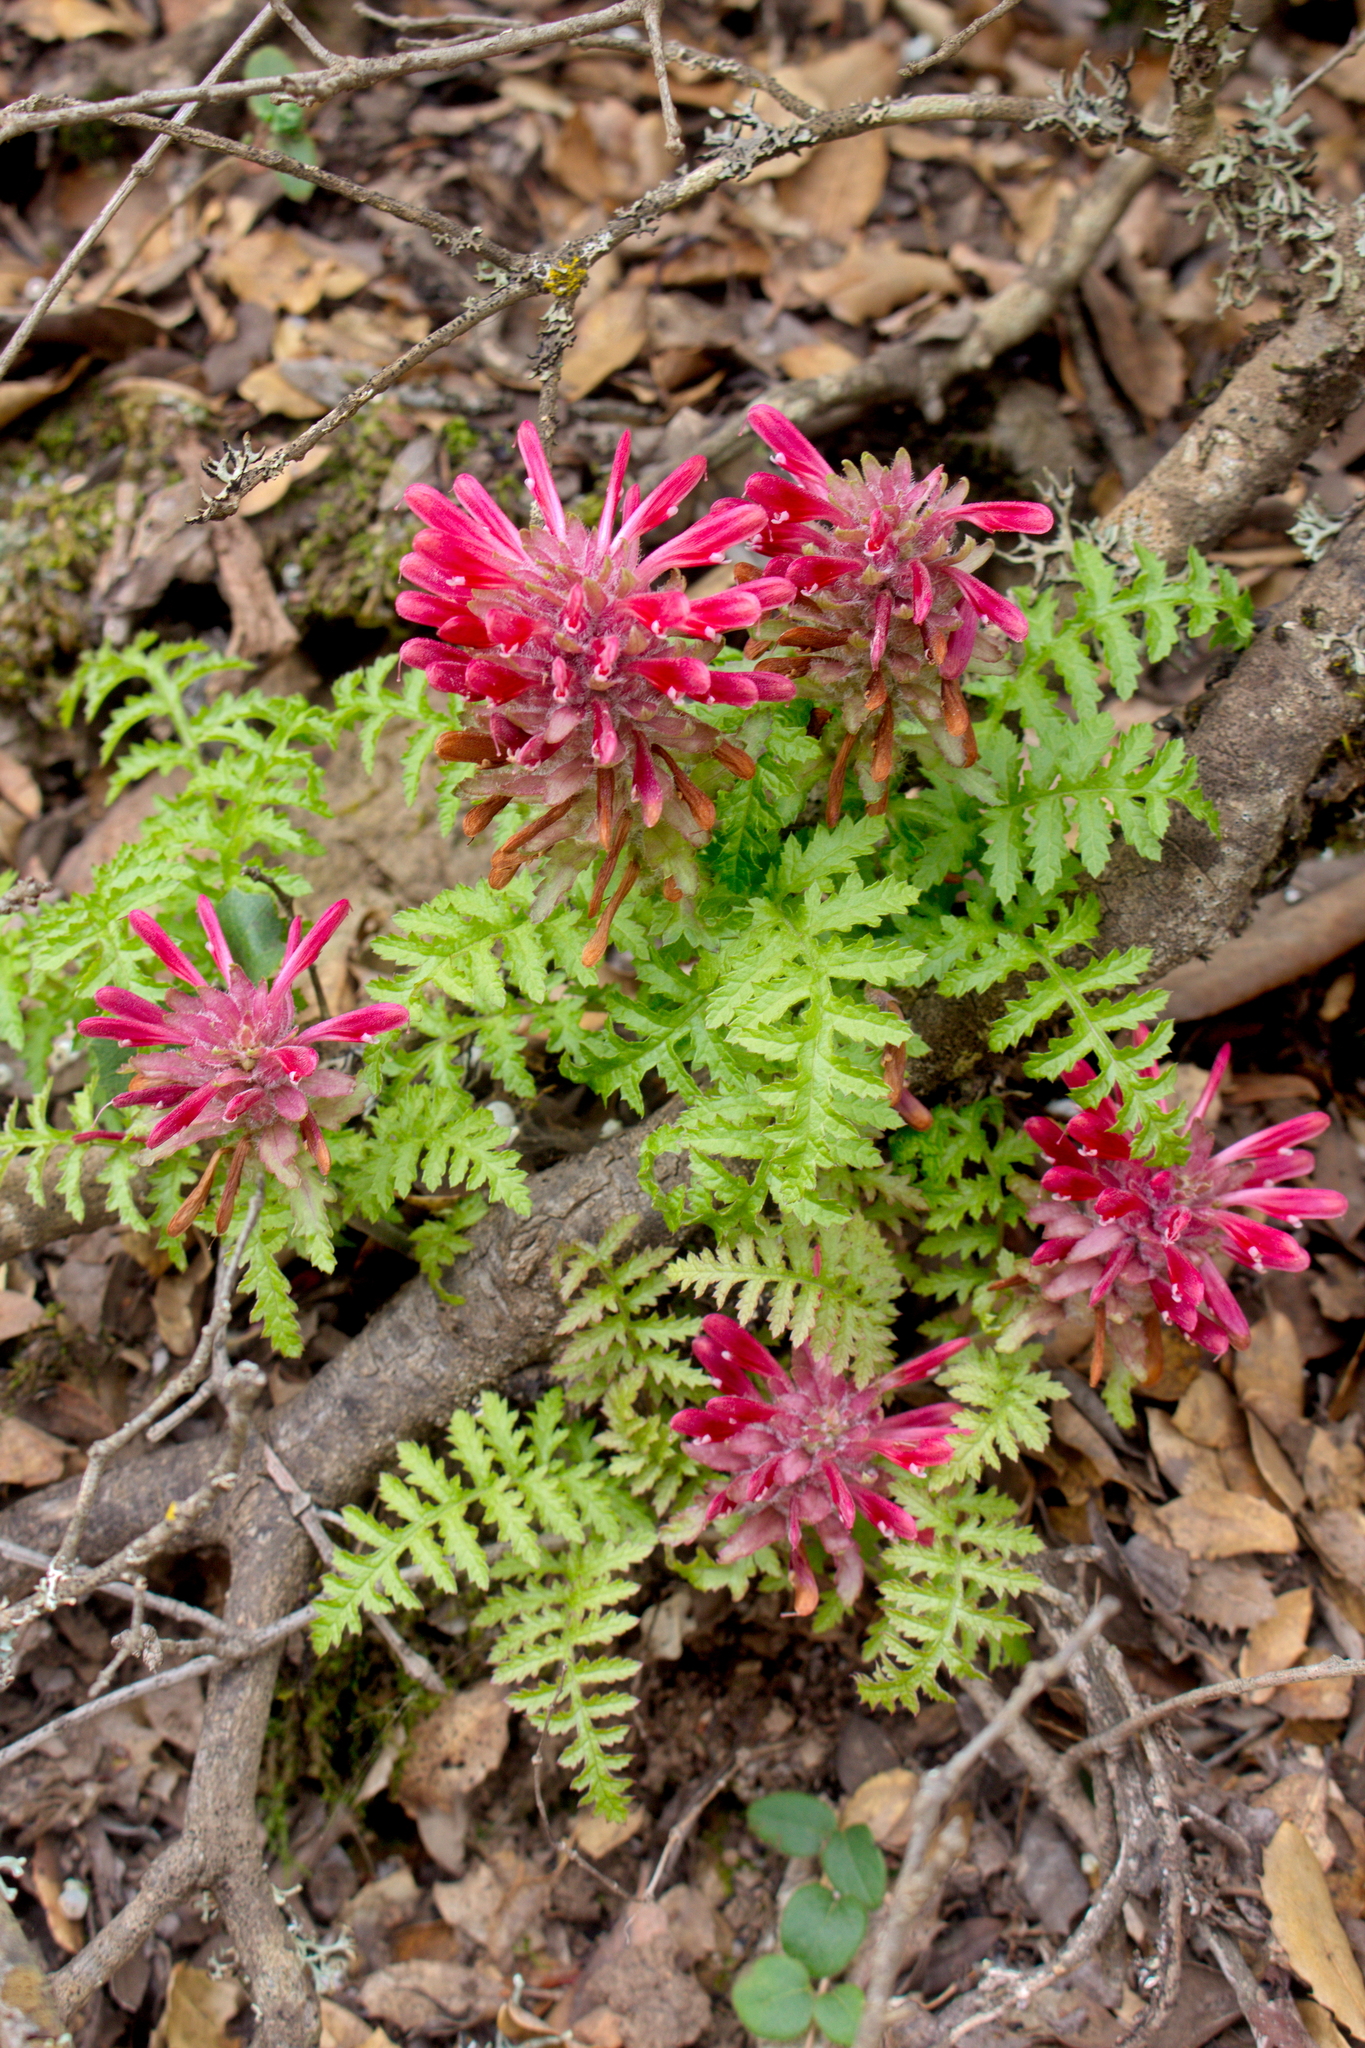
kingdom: Plantae
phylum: Tracheophyta
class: Magnoliopsida
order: Lamiales
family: Orobanchaceae
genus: Pedicularis
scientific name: Pedicularis densiflora
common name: Indian warrior
